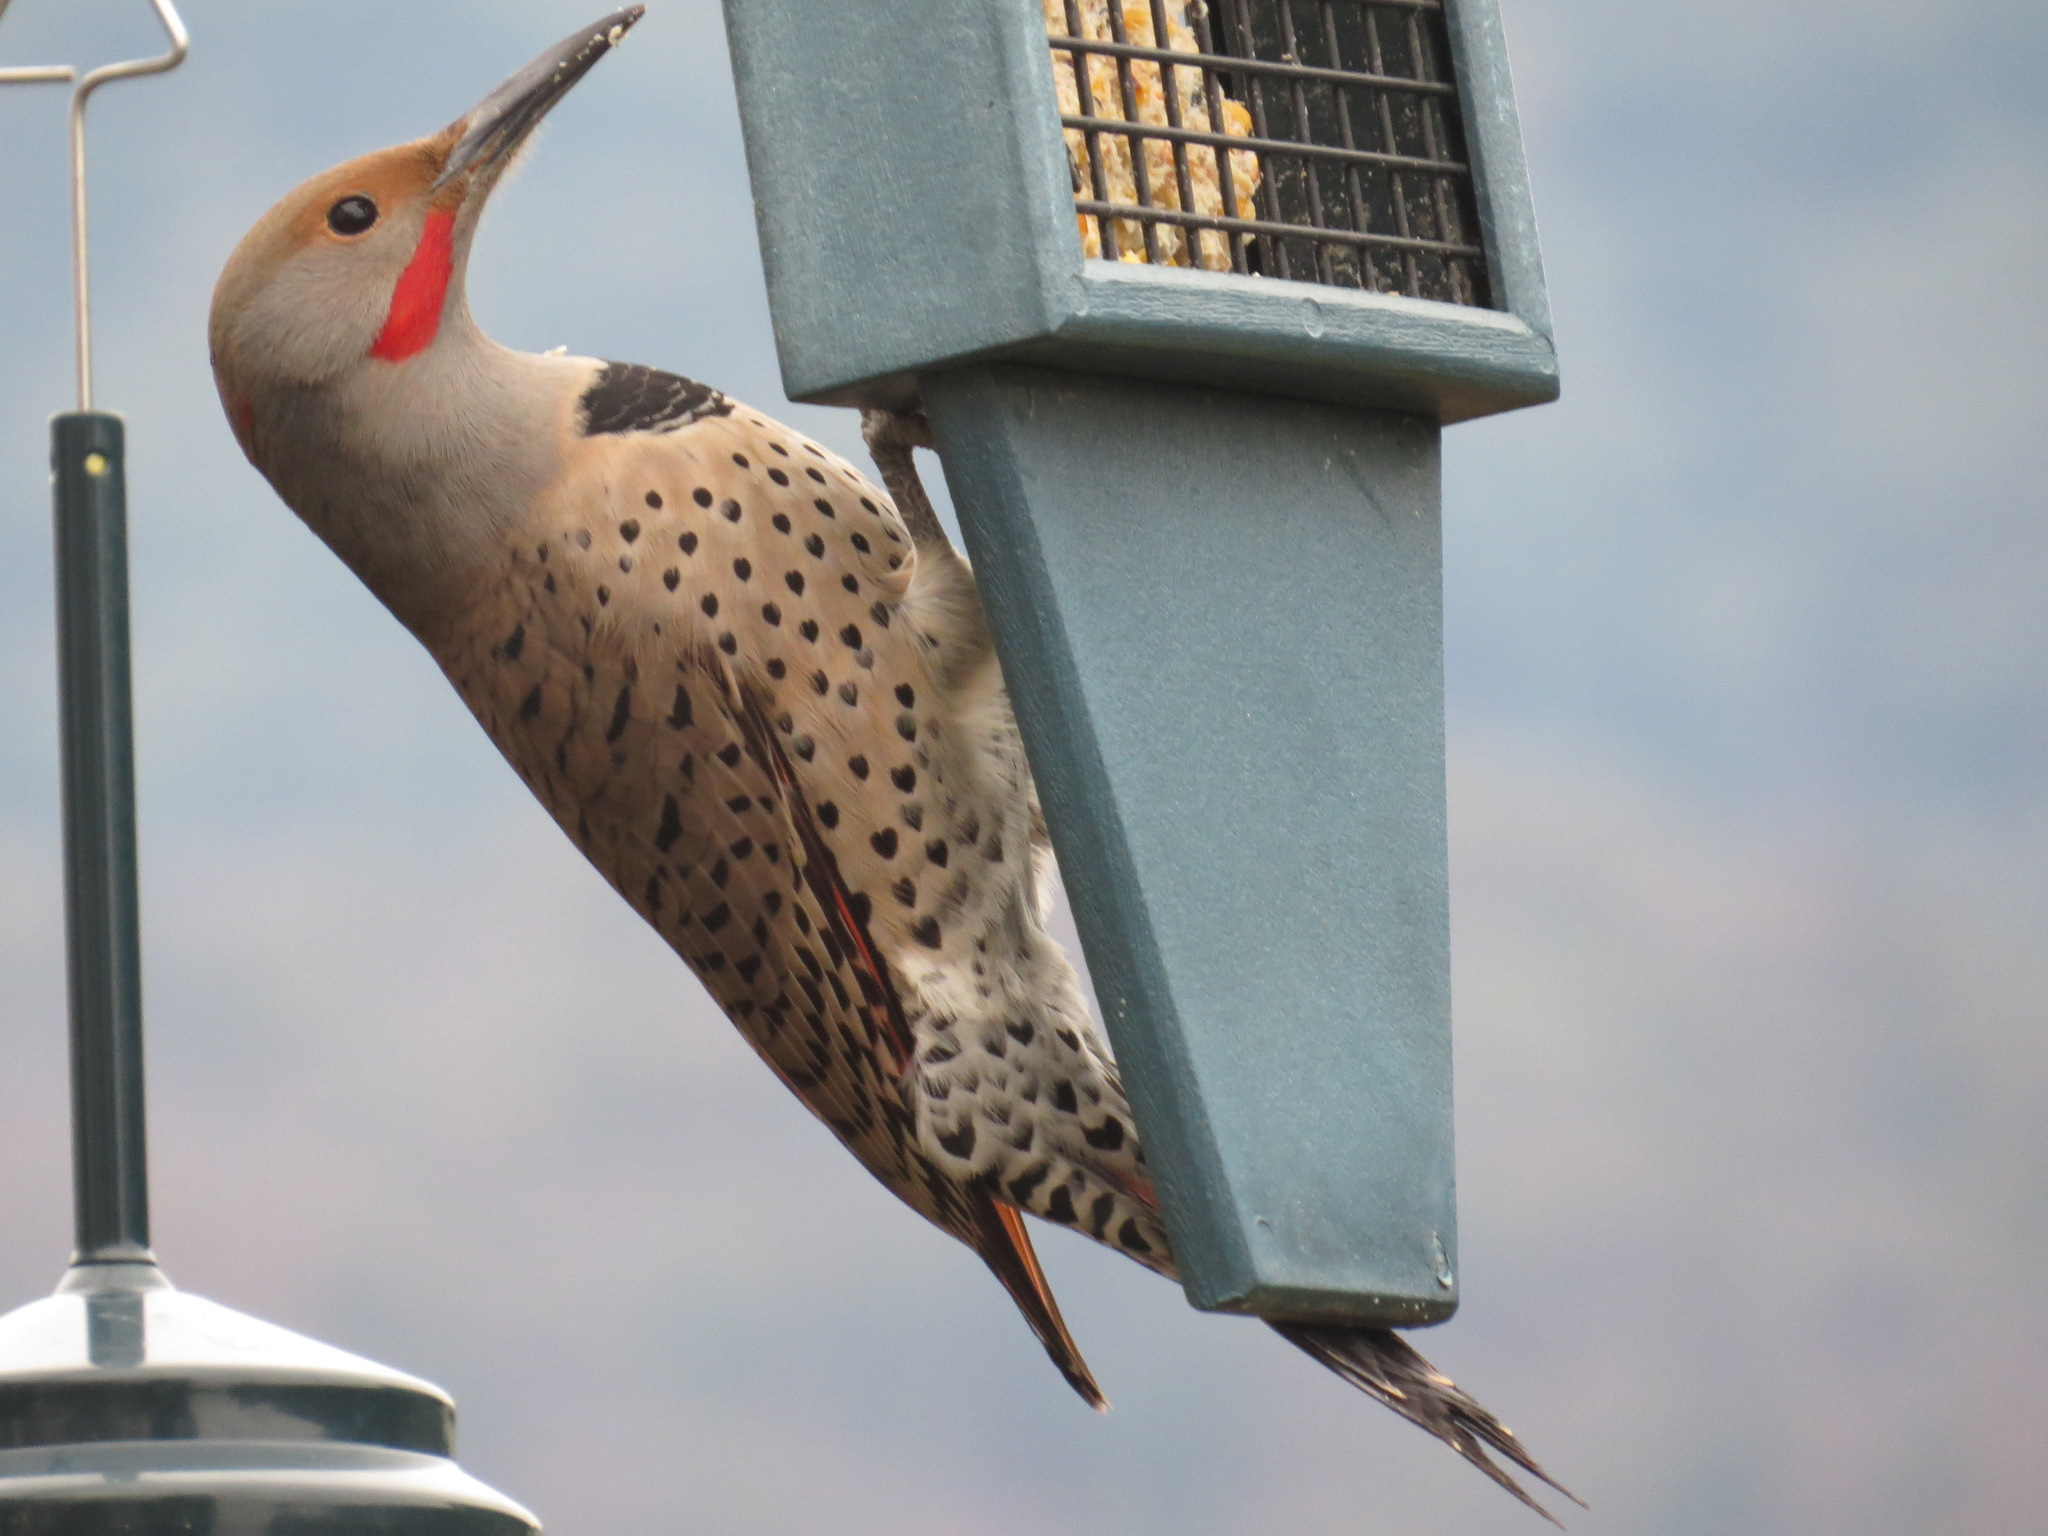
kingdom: Animalia
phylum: Chordata
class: Aves
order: Piciformes
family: Picidae
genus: Colaptes
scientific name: Colaptes auratus
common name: Northern flicker
